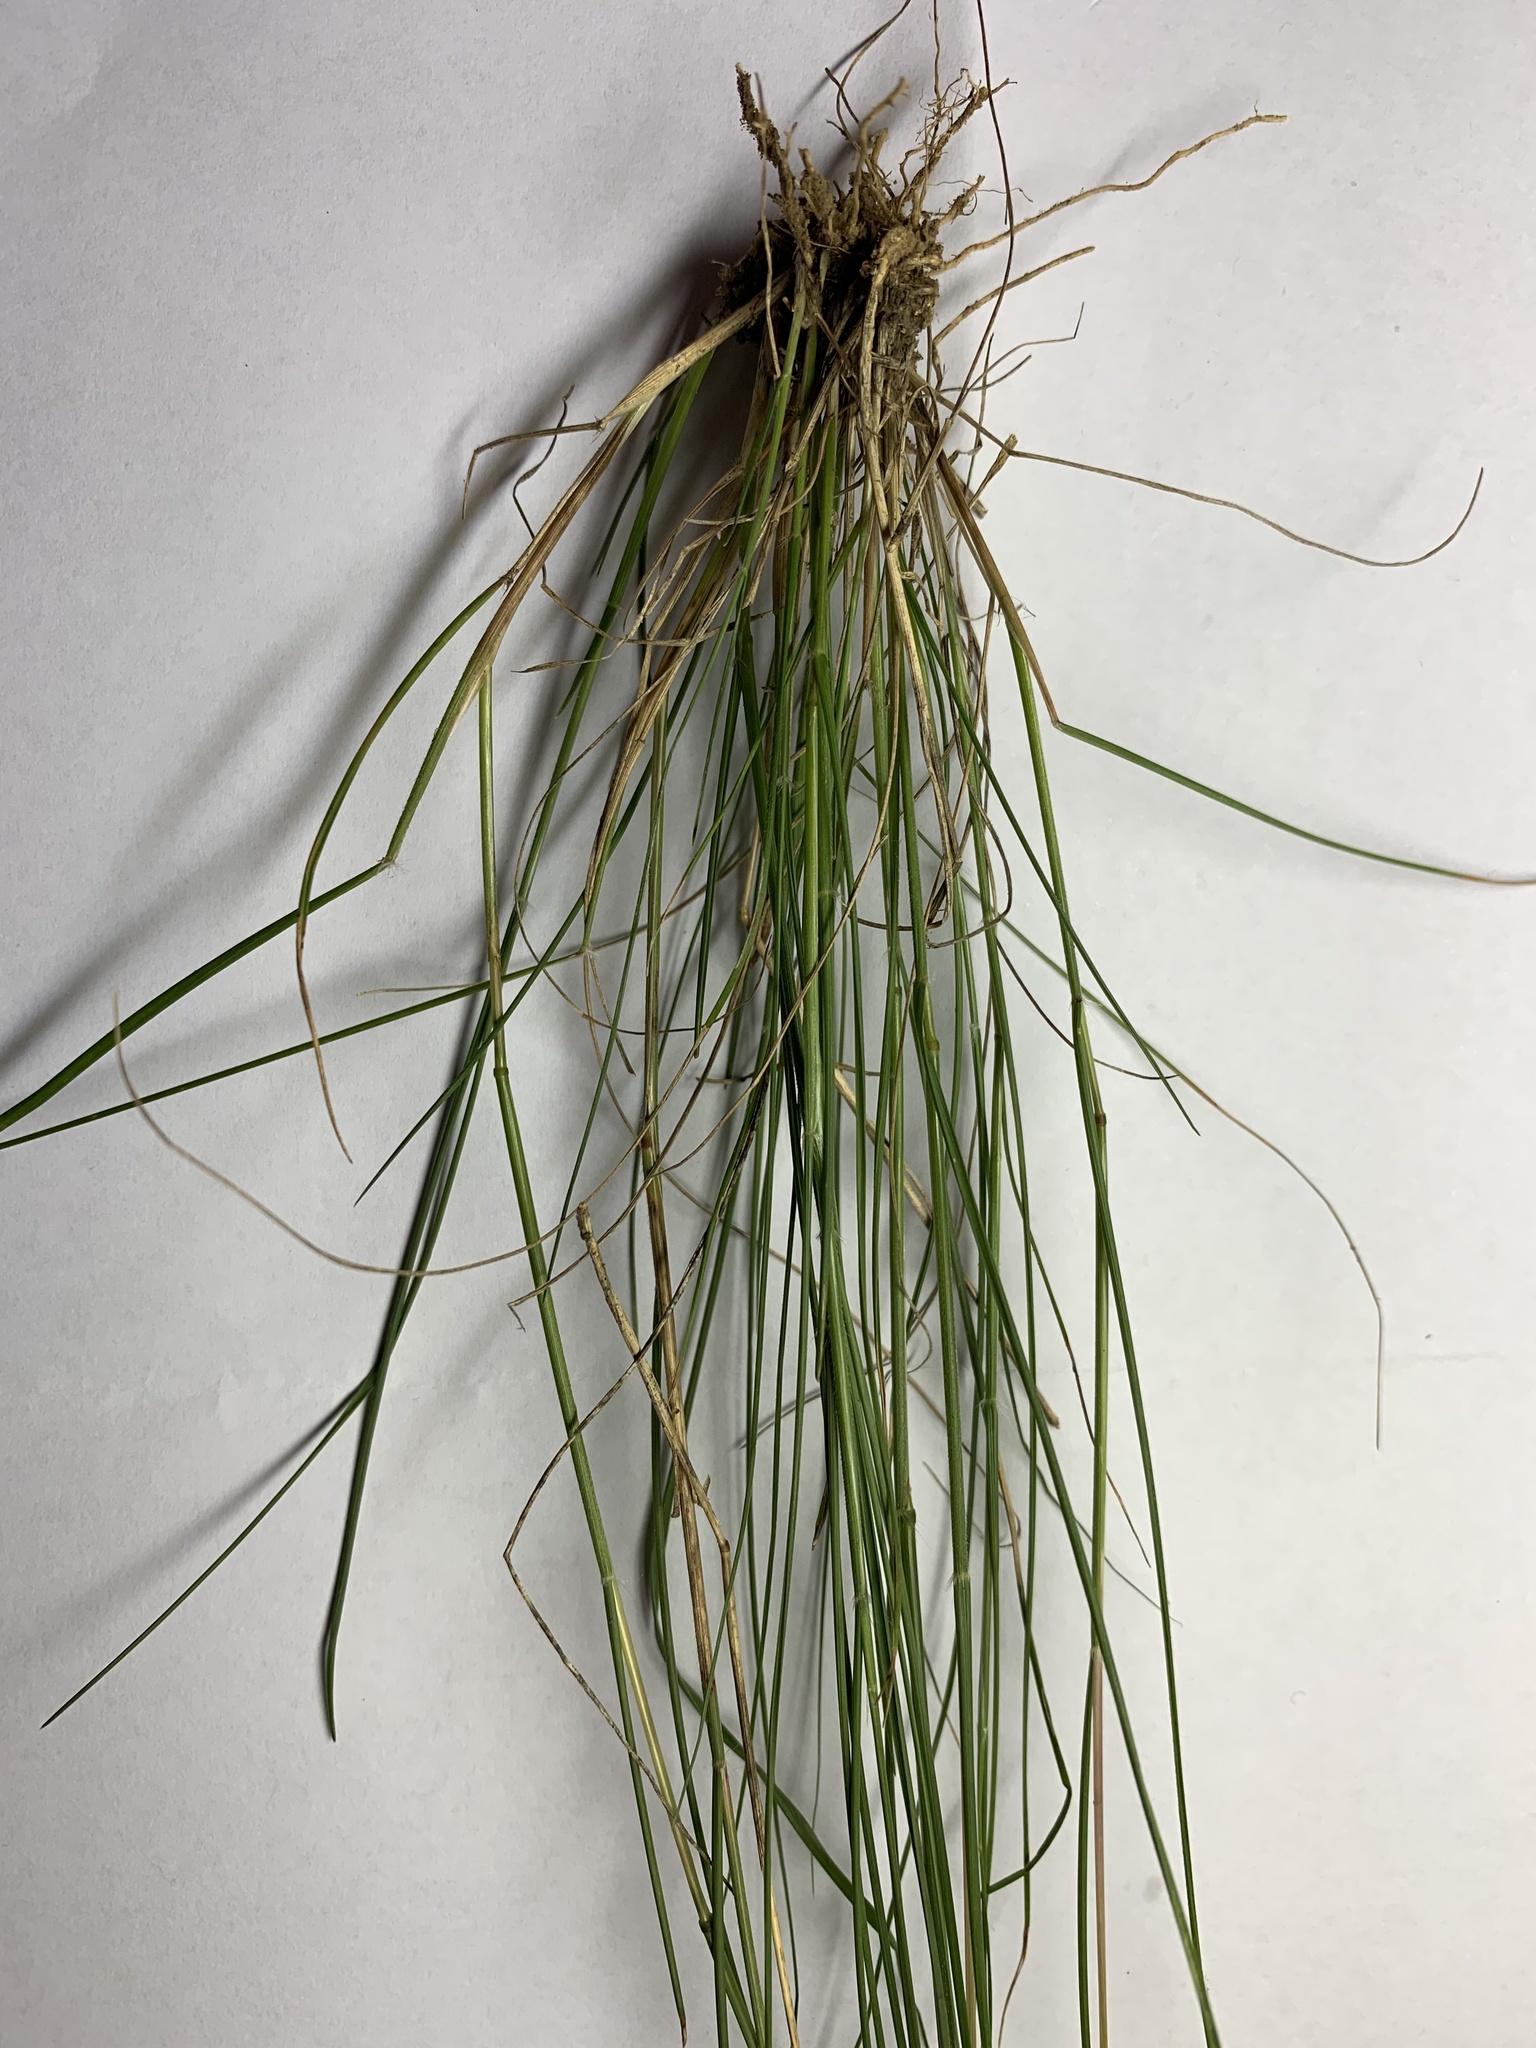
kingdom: Plantae
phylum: Tracheophyta
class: Liliopsida
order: Poales
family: Poaceae
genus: Rytidosperma
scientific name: Rytidosperma racemosum
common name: Wallaby-grass
